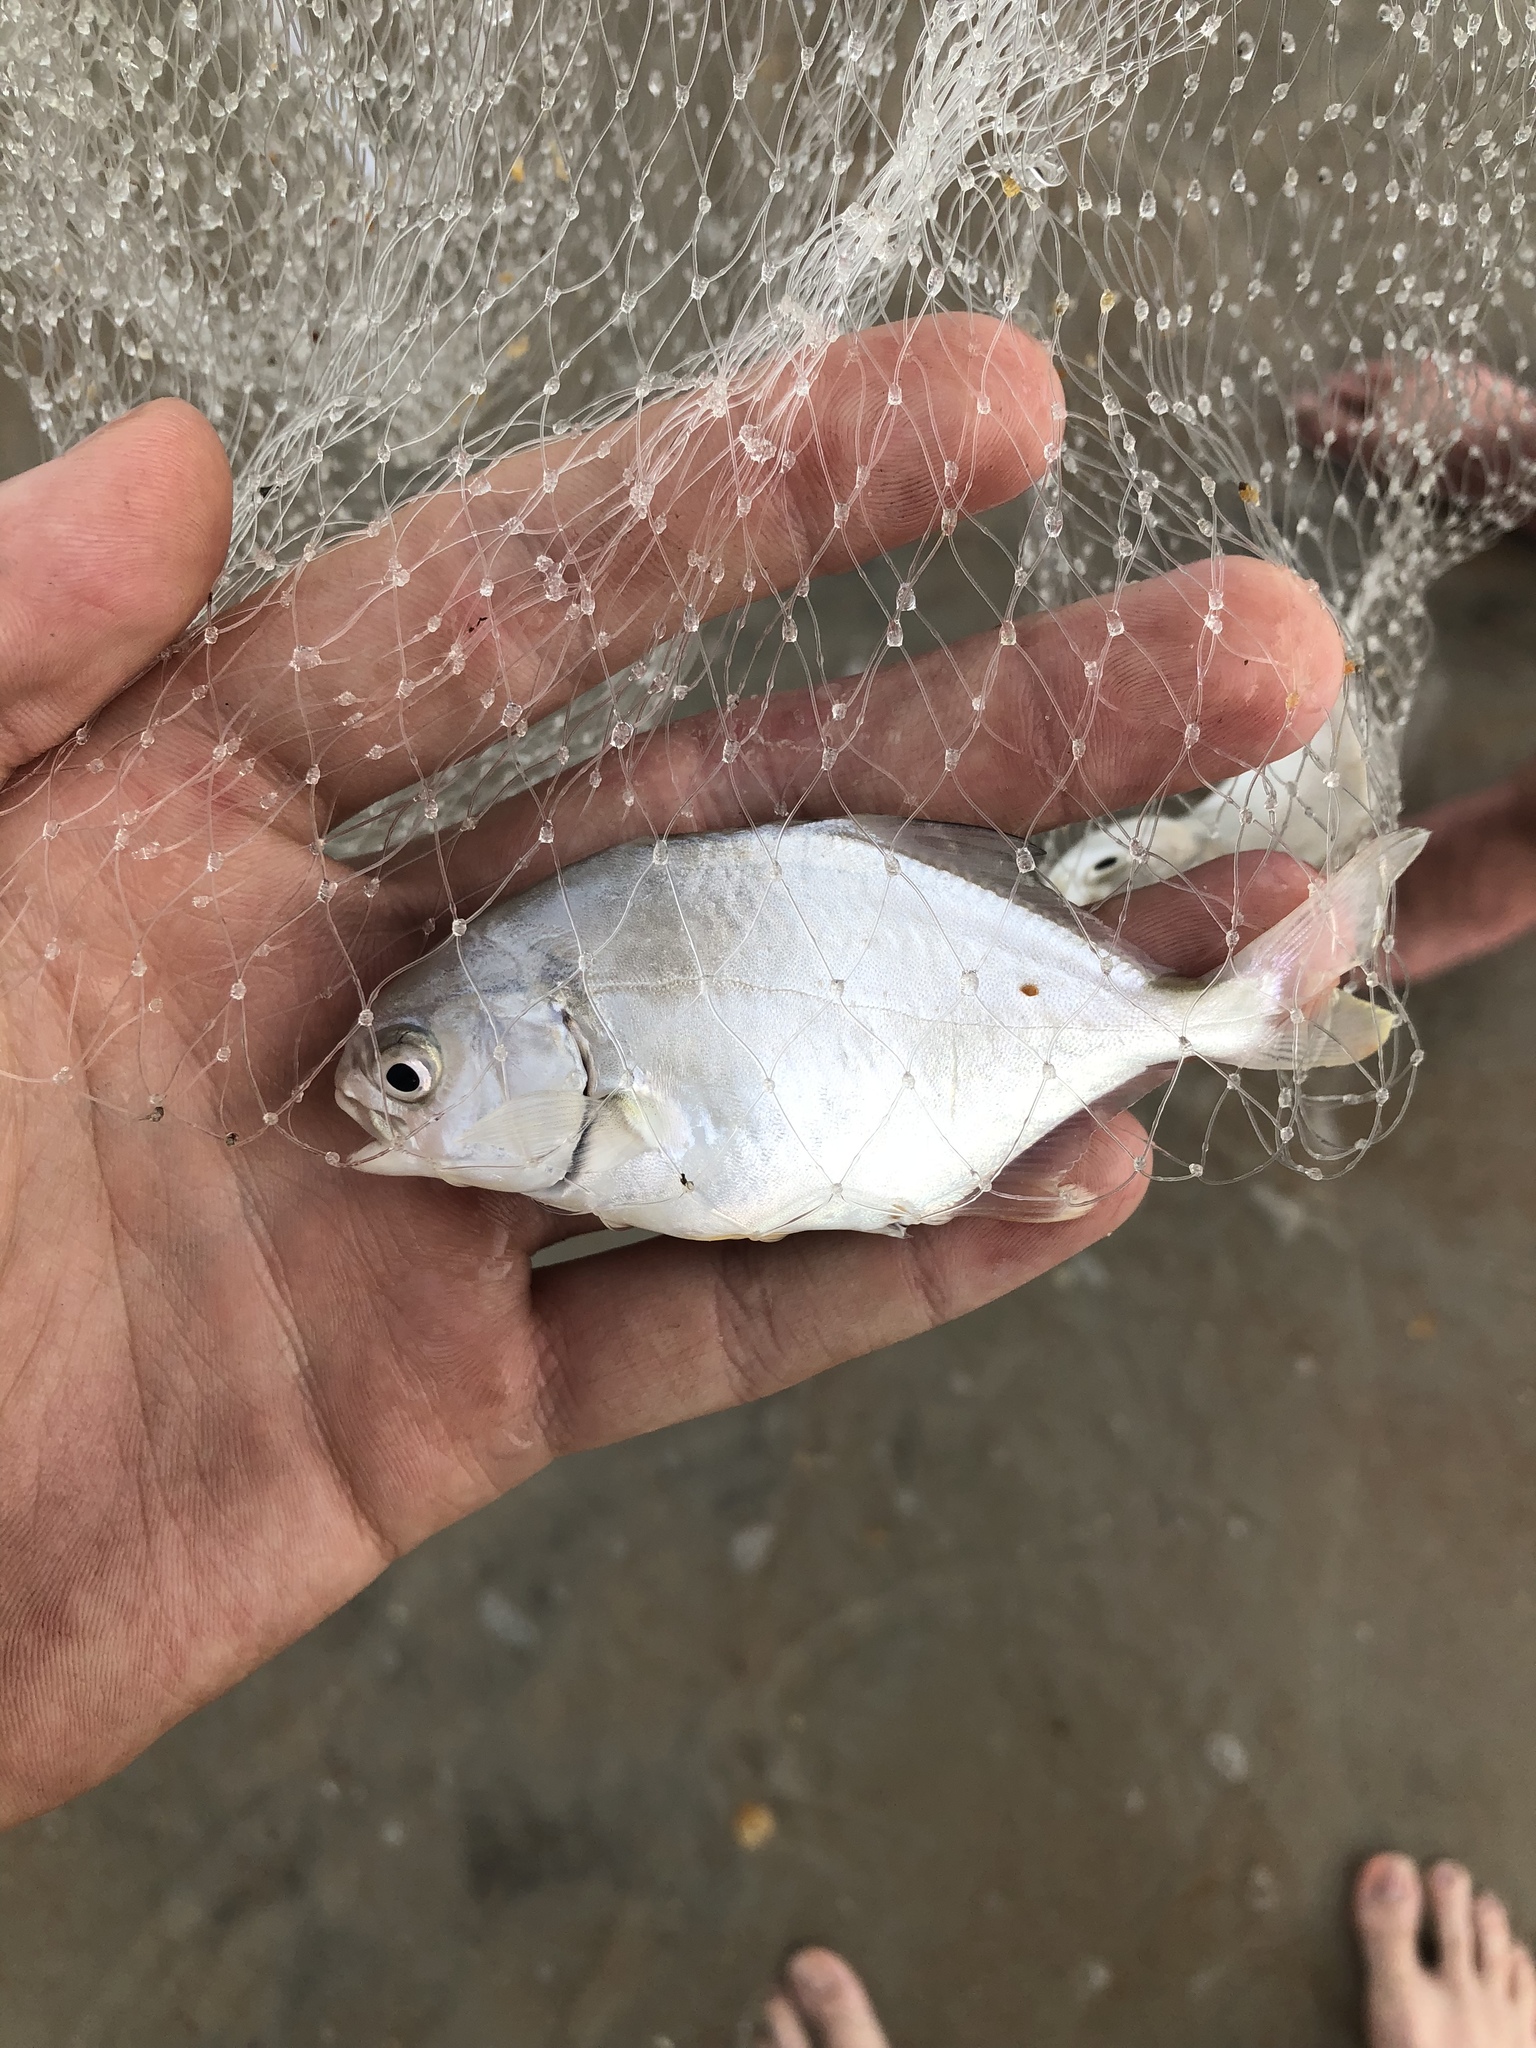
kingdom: Animalia
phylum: Chordata
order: Perciformes
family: Carangidae
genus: Trachinotus
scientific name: Trachinotus carolinus
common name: Florida pompano
